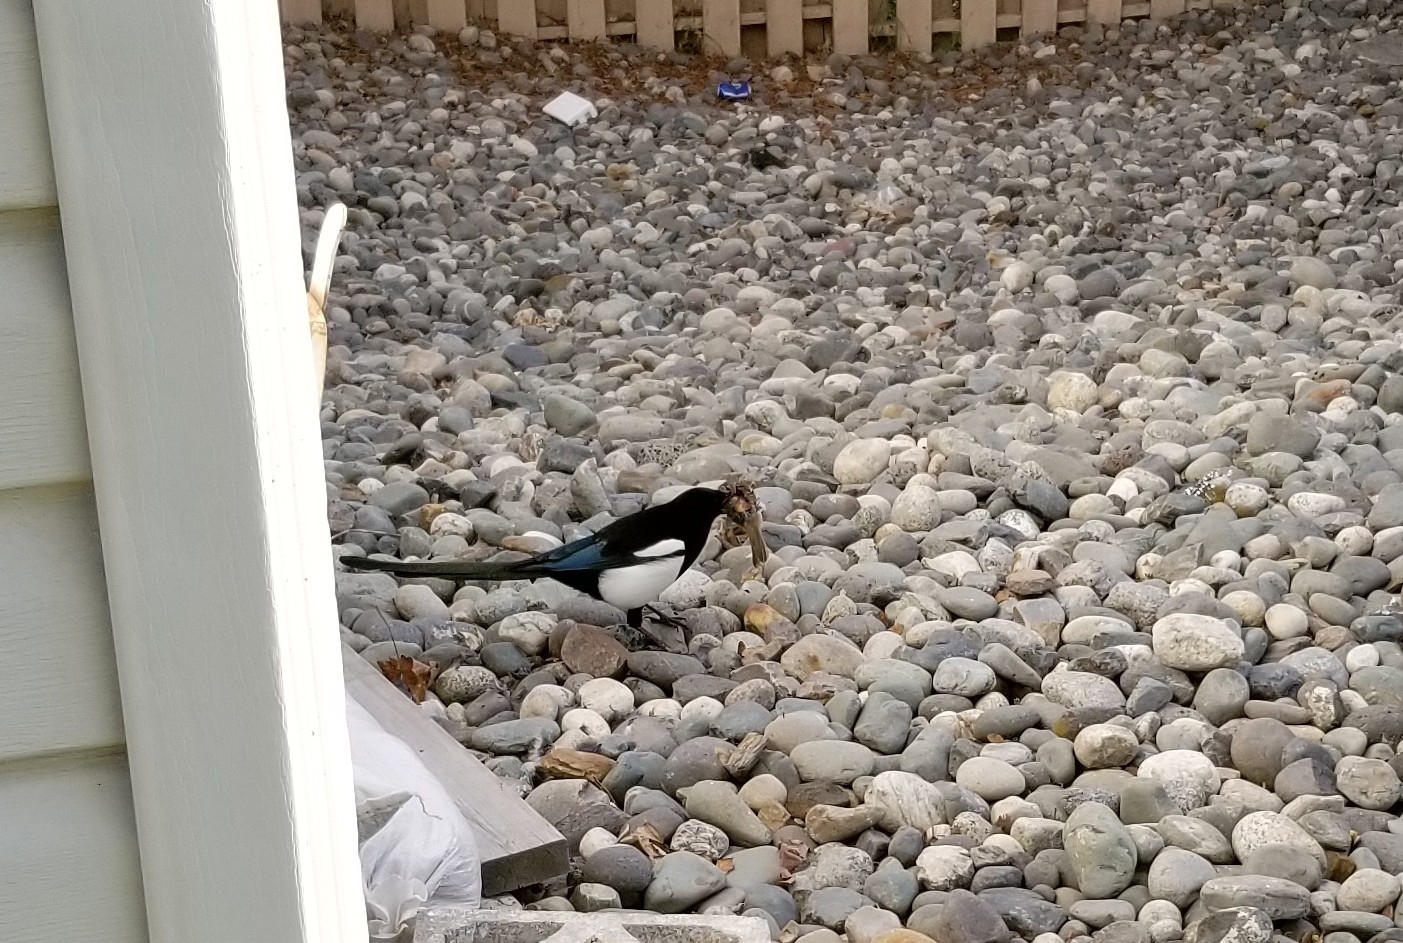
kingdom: Animalia
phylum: Chordata
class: Aves
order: Passeriformes
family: Passerellidae
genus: Zonotrichia
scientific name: Zonotrichia leucophrys
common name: White-crowned sparrow
